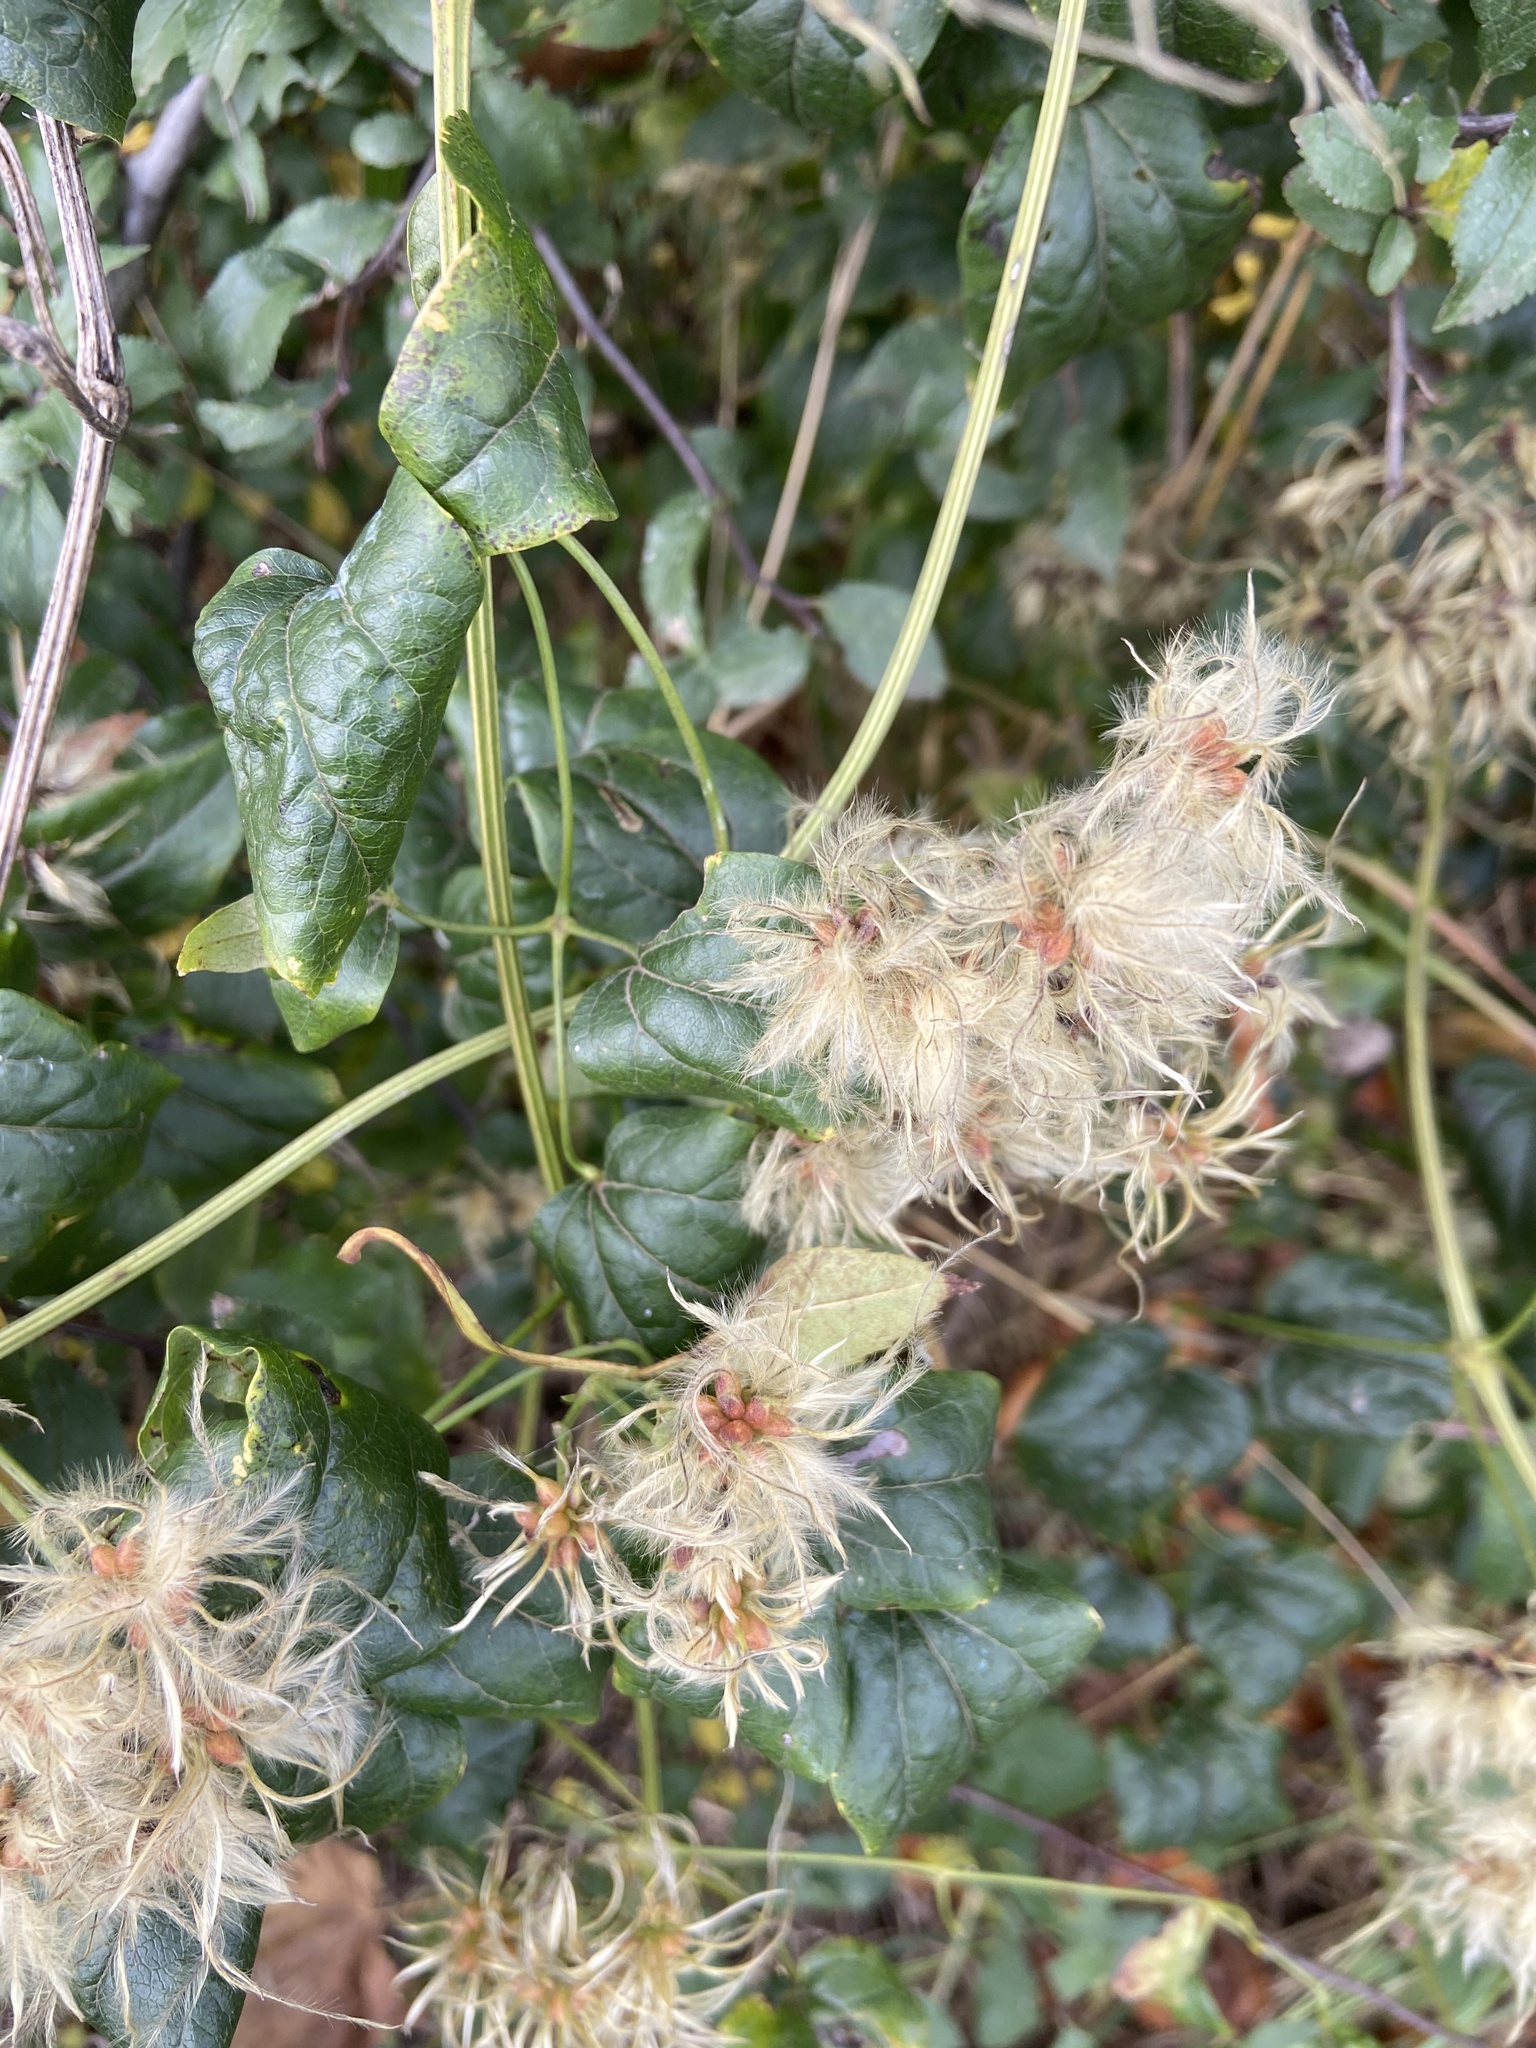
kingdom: Plantae
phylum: Tracheophyta
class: Magnoliopsida
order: Ranunculales
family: Ranunculaceae
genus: Clematis
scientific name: Clematis vitalba
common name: Evergreen clematis
